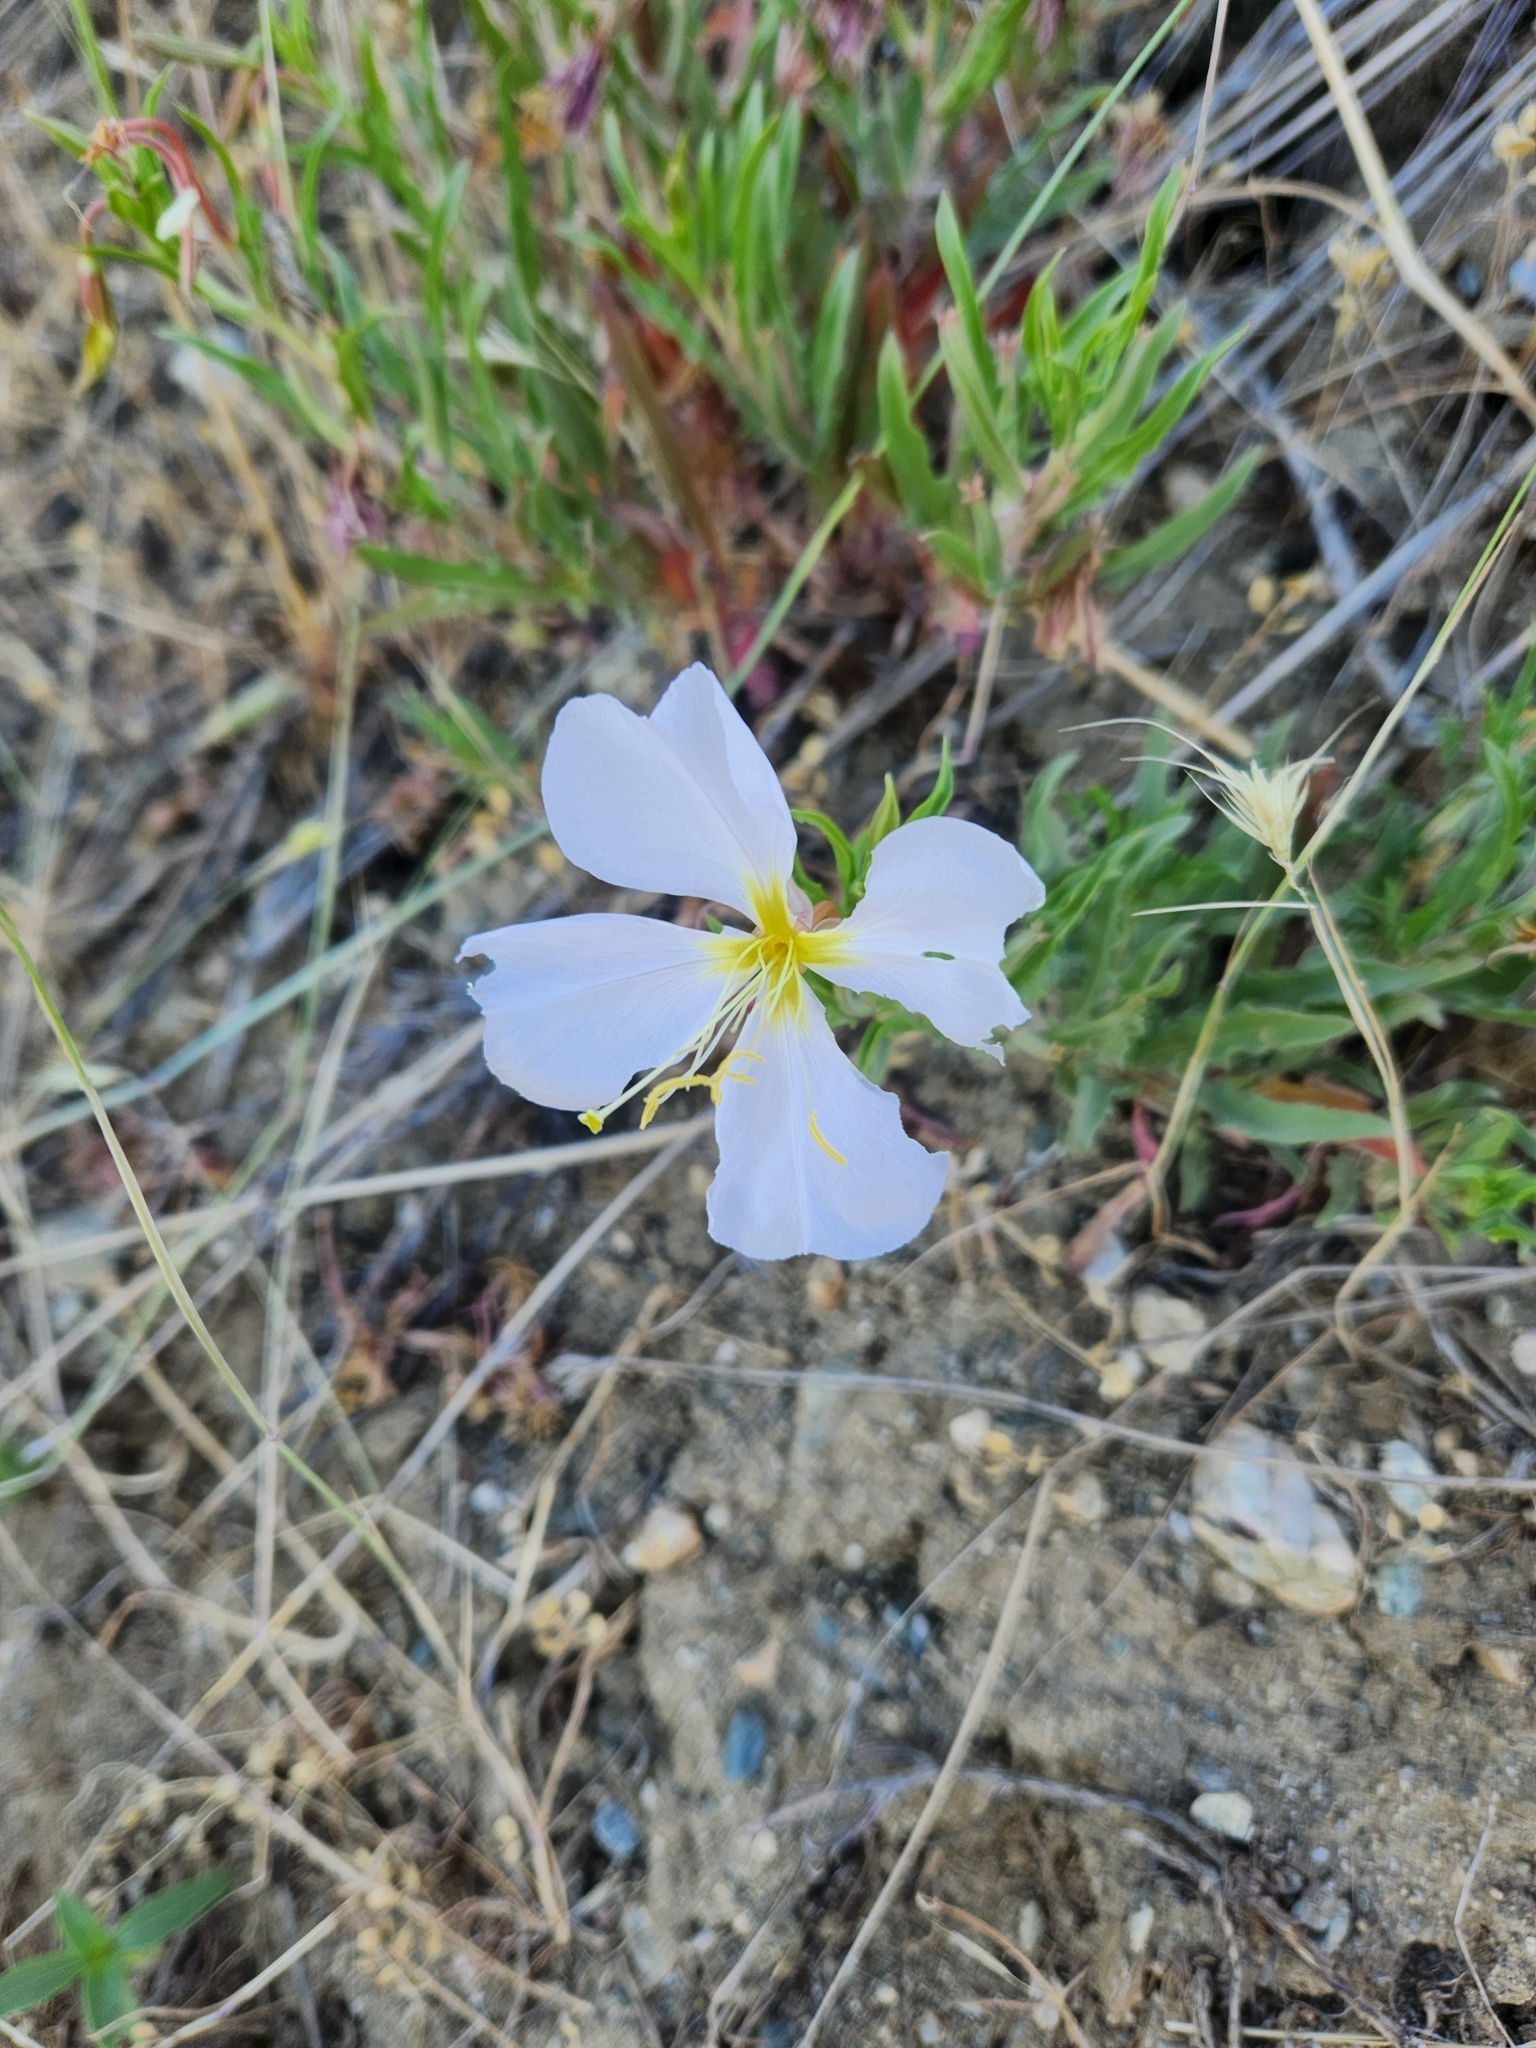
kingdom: Plantae
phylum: Tracheophyta
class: Magnoliopsida
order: Myrtales
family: Onagraceae
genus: Oenothera
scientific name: Oenothera pallida
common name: Pale evening-primrose
